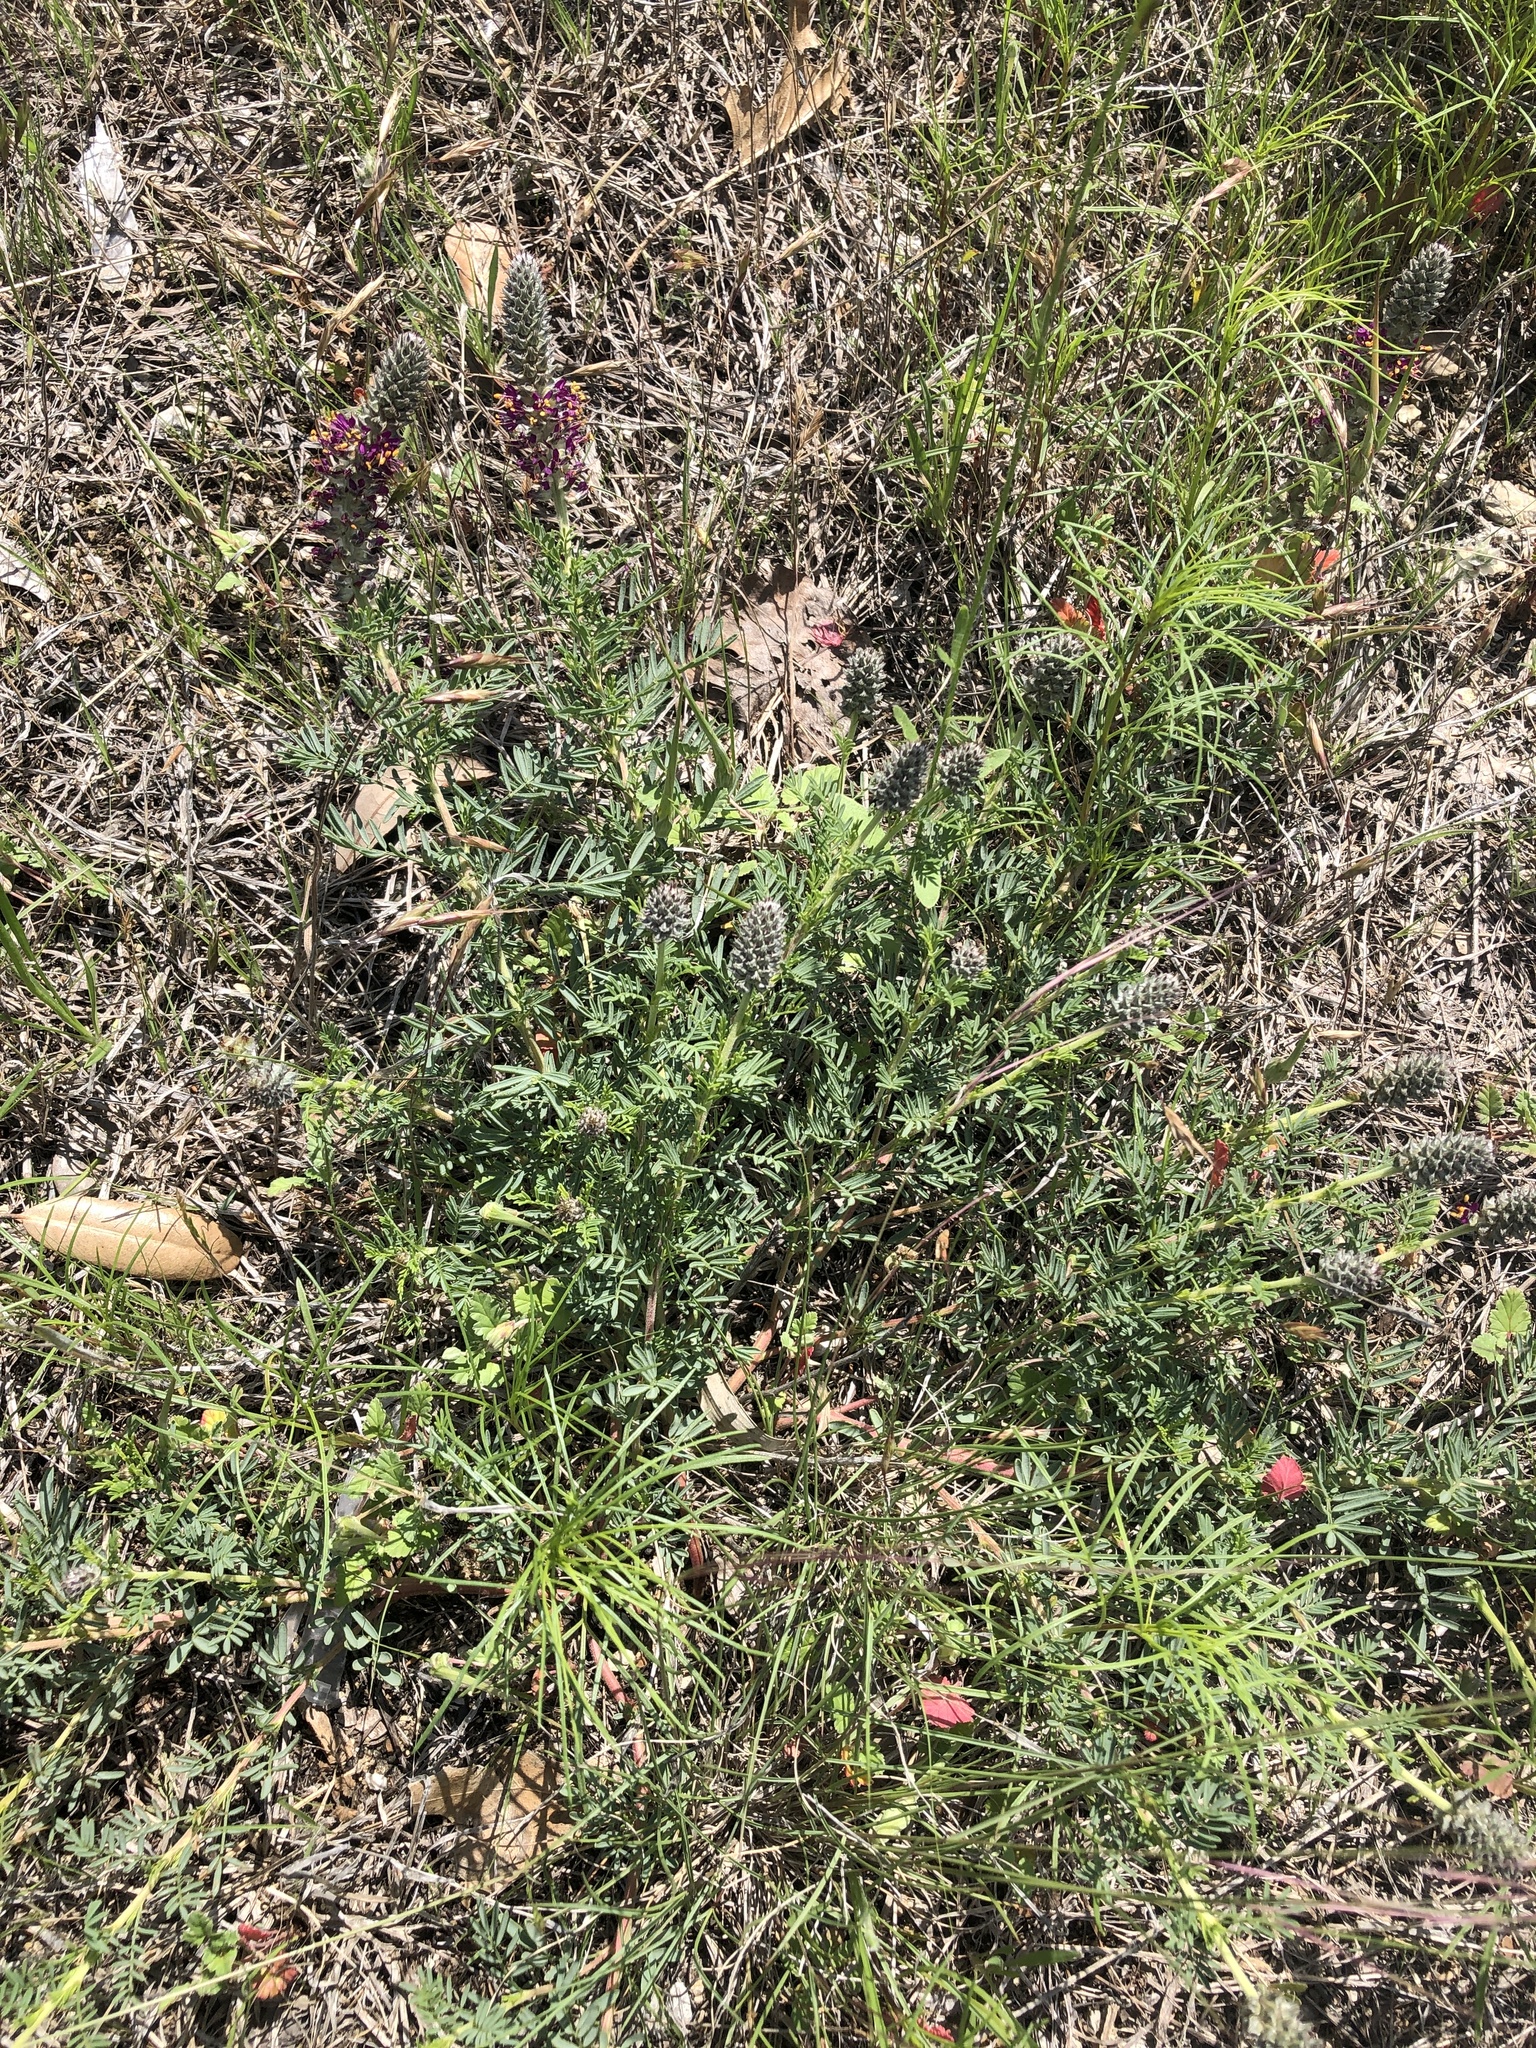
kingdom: Plantae
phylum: Tracheophyta
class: Magnoliopsida
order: Fabales
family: Fabaceae
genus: Dalea
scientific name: Dalea reverchonii
